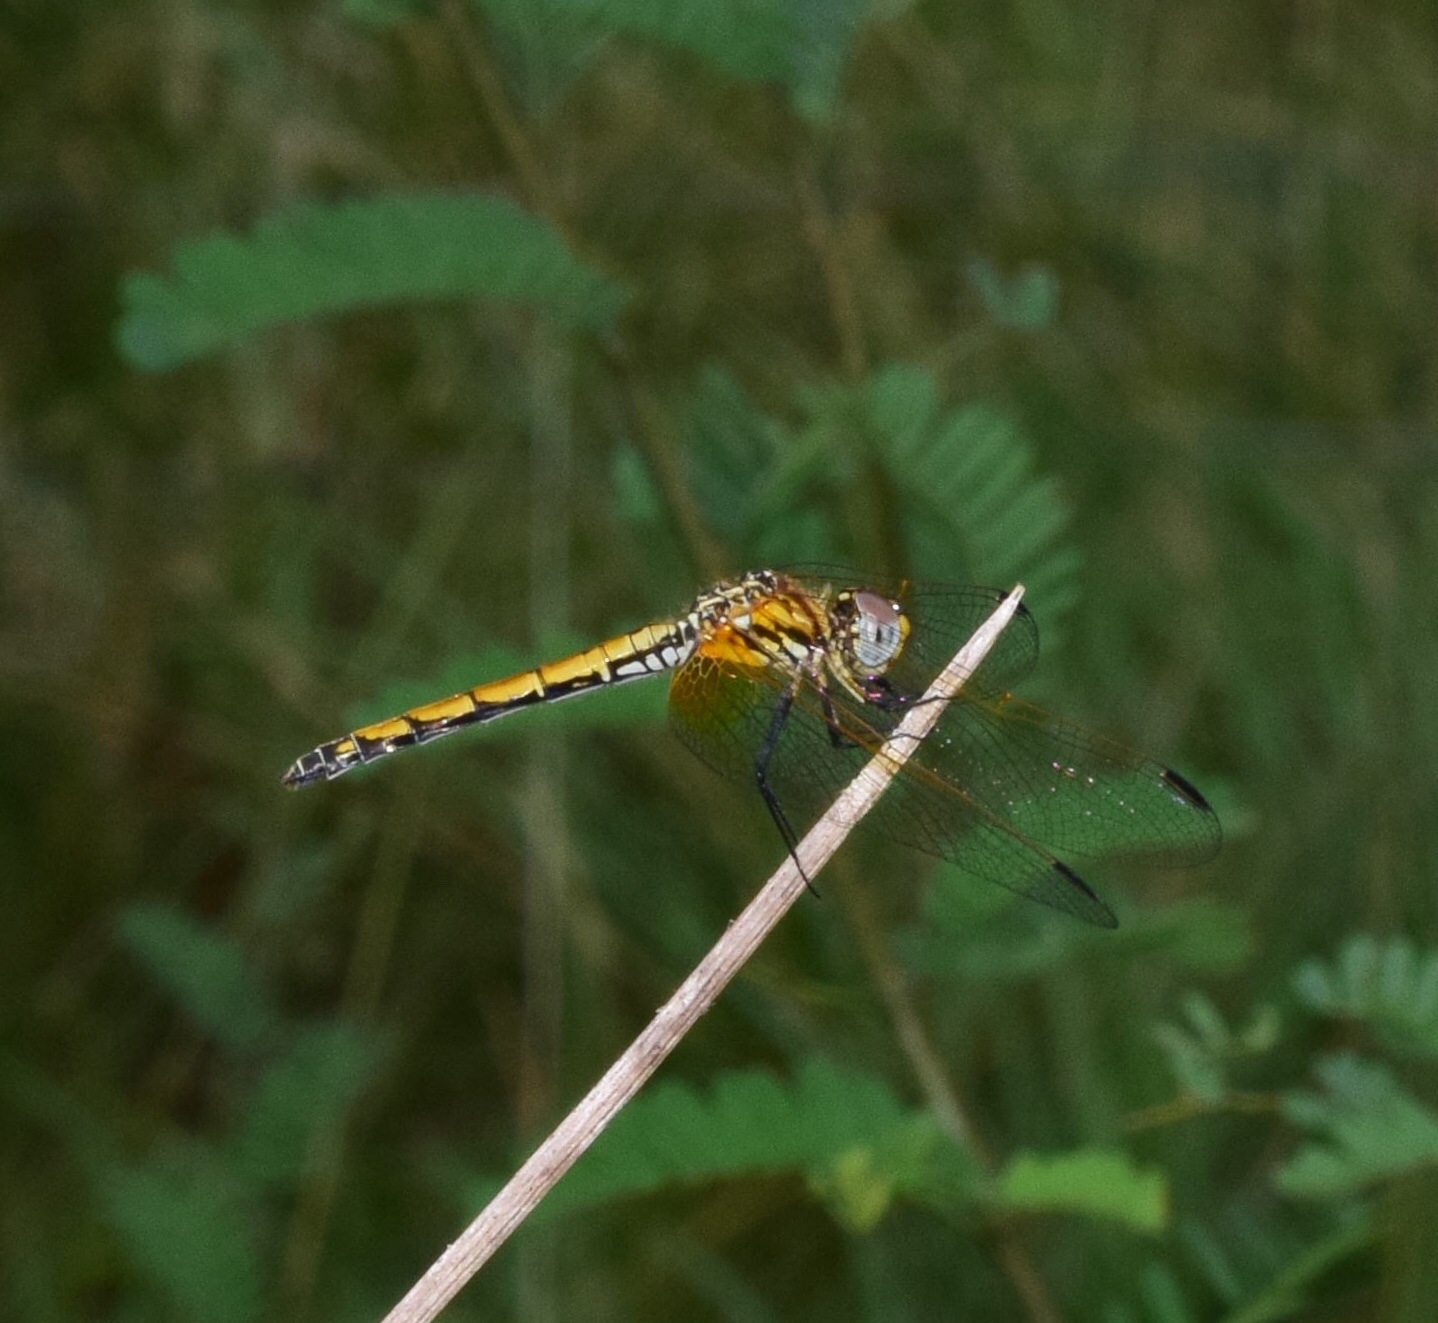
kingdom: Animalia
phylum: Arthropoda
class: Insecta
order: Odonata
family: Libellulidae
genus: Trithemis
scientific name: Trithemis arteriosa
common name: Red-veined dropwing
